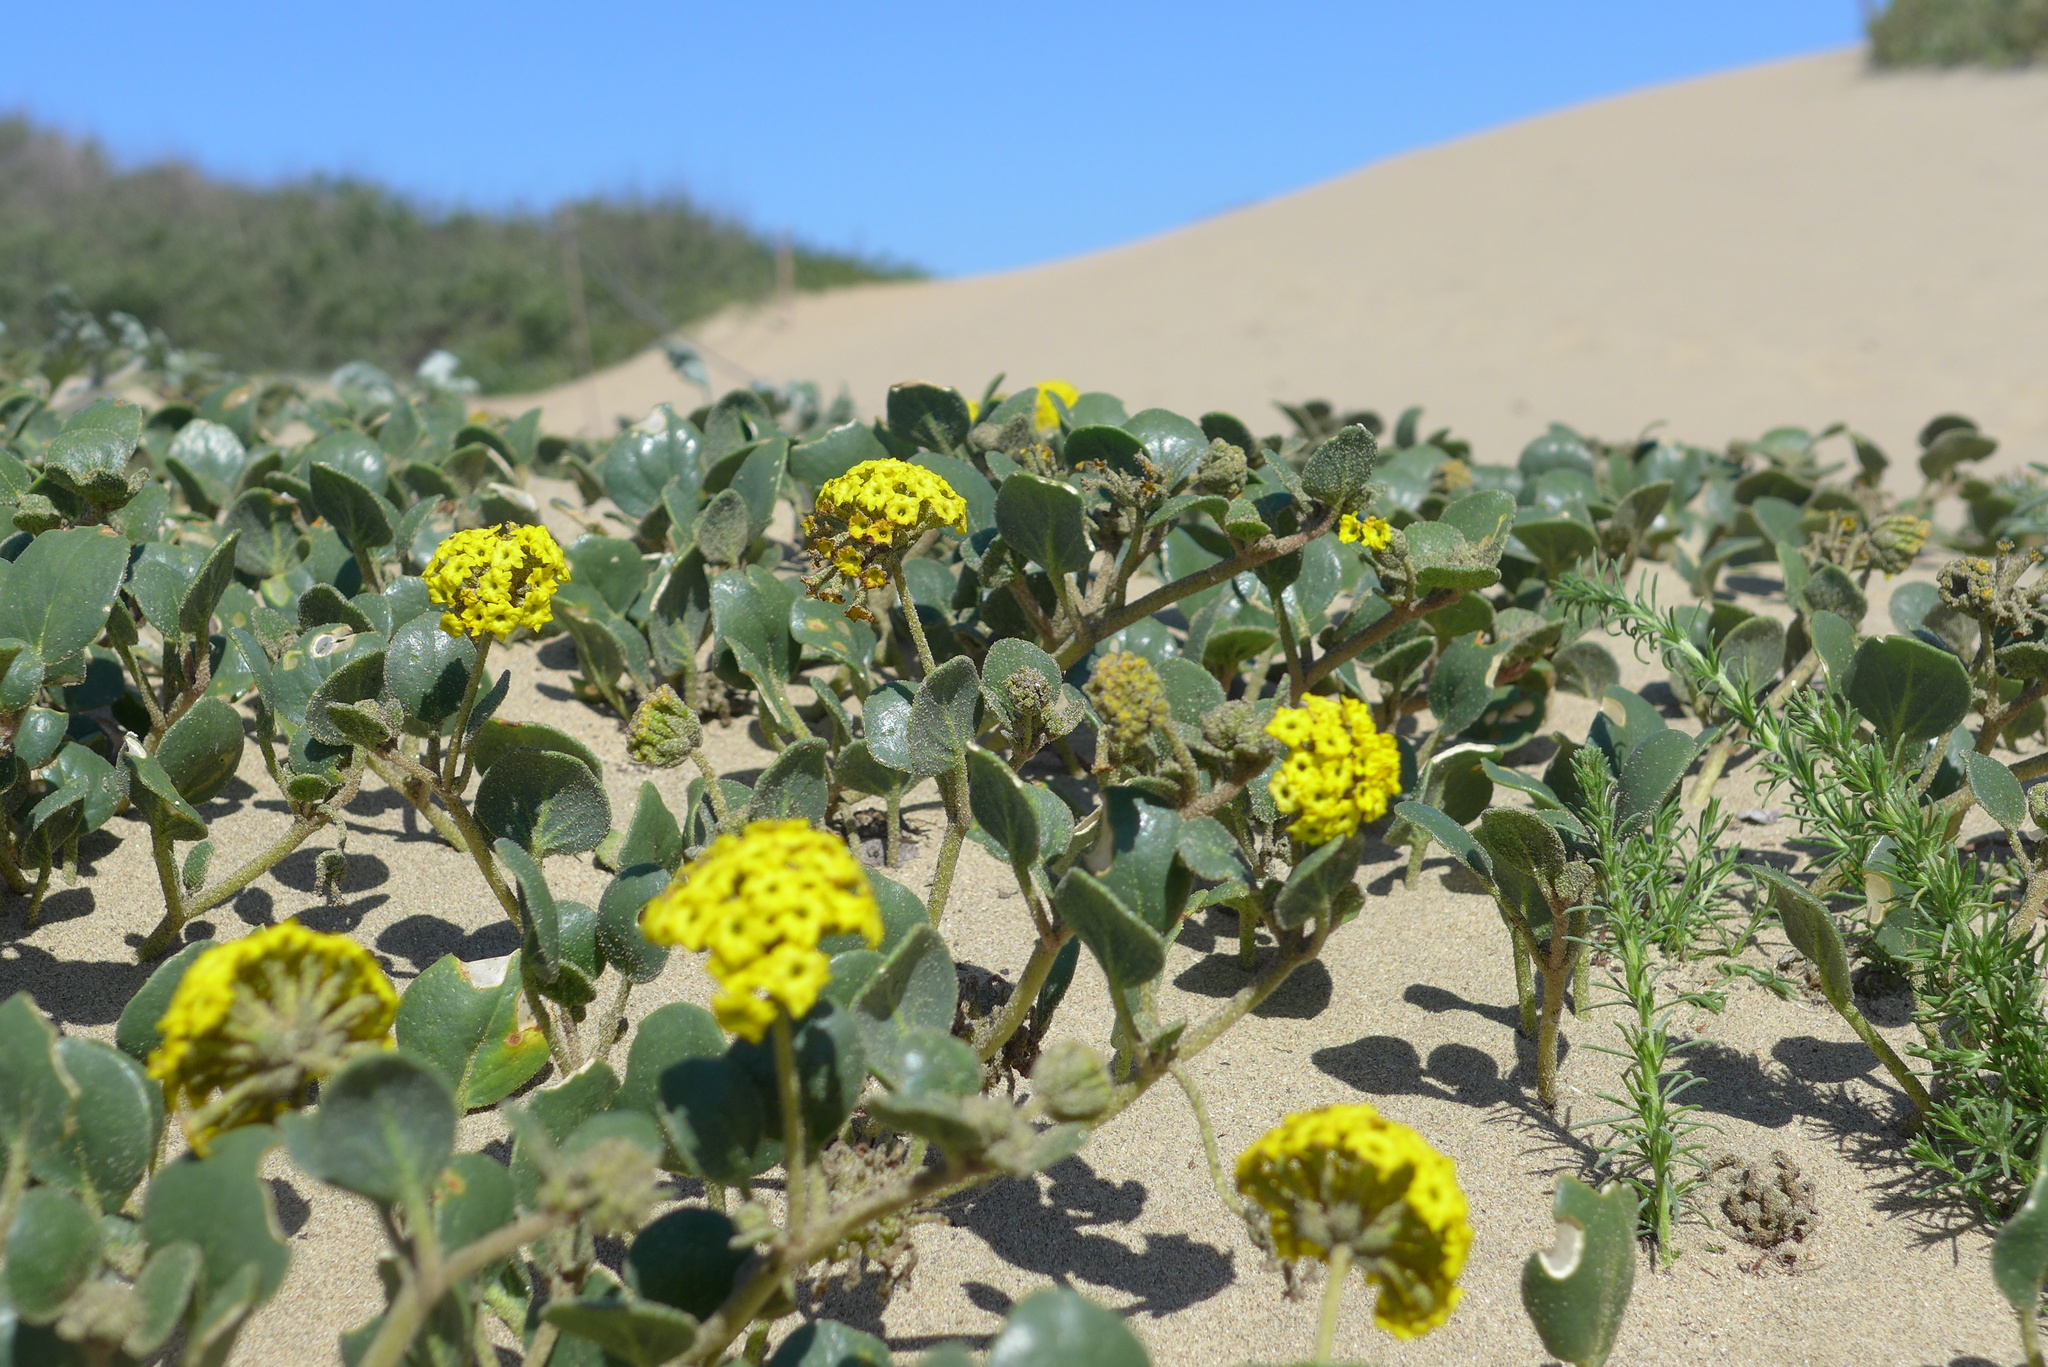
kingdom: Plantae
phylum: Tracheophyta
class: Magnoliopsida
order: Caryophyllales
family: Nyctaginaceae
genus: Abronia
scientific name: Abronia latifolia
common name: Yellow sand-verbena
